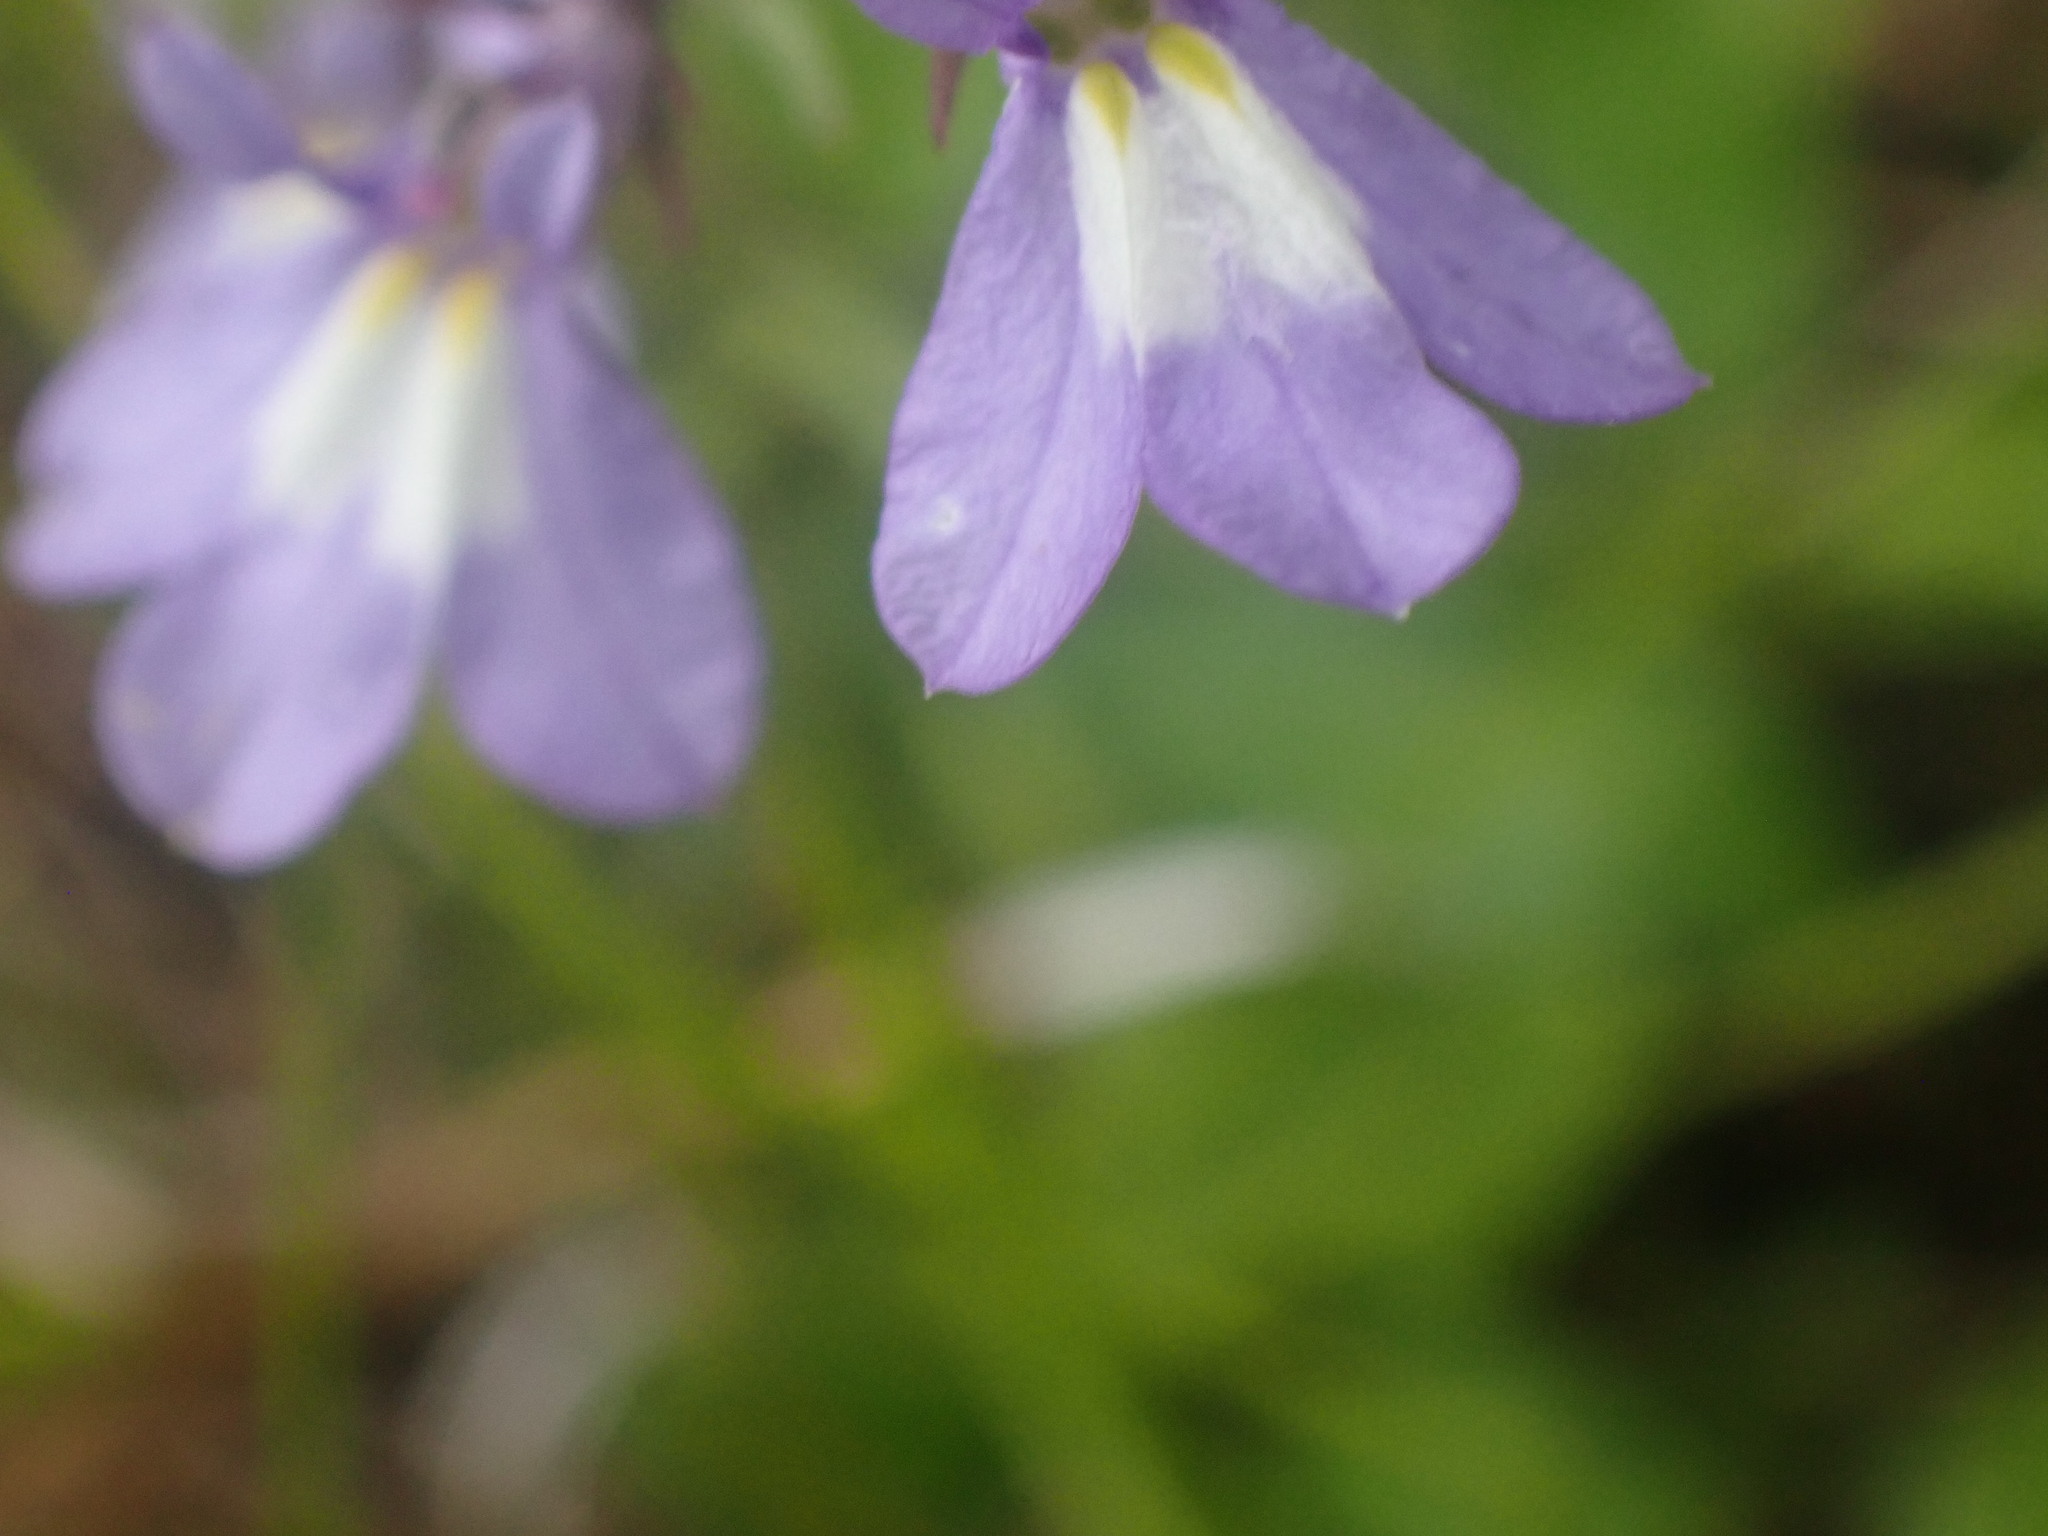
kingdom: Plantae
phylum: Tracheophyta
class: Magnoliopsida
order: Asterales
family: Campanulaceae
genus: Lobelia
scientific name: Lobelia kalmii
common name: Kalm's lobelia
